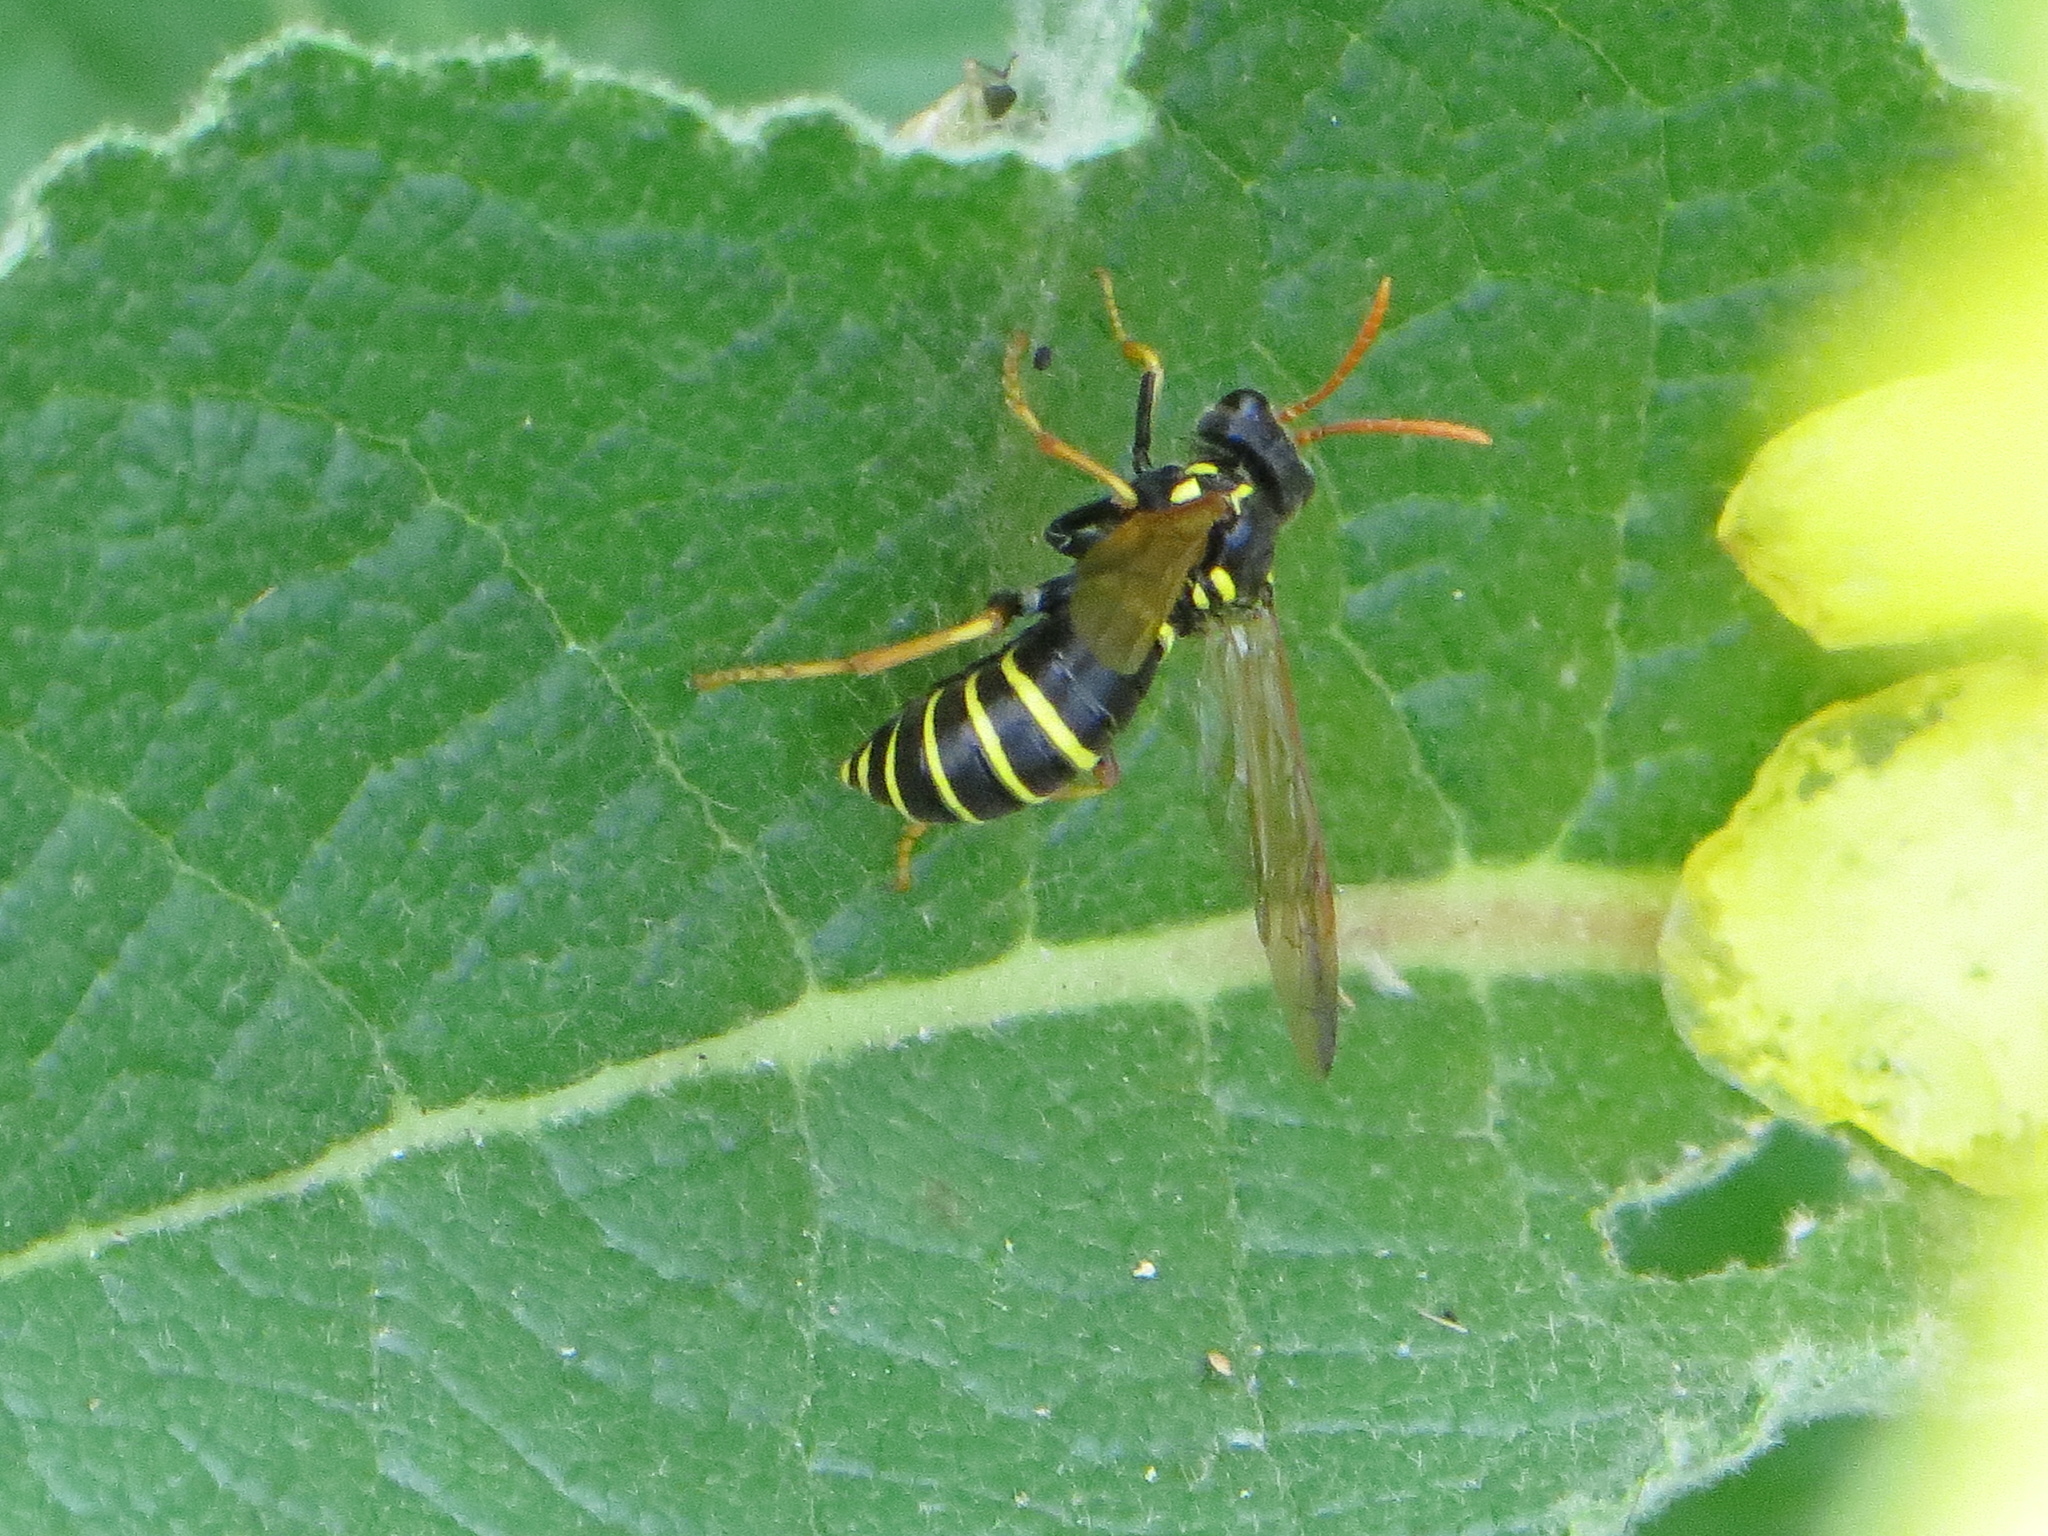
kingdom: Animalia
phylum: Arthropoda
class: Insecta
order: Hymenoptera
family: Tenthredinidae
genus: Tenthredo
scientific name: Tenthredo scrophulariae
